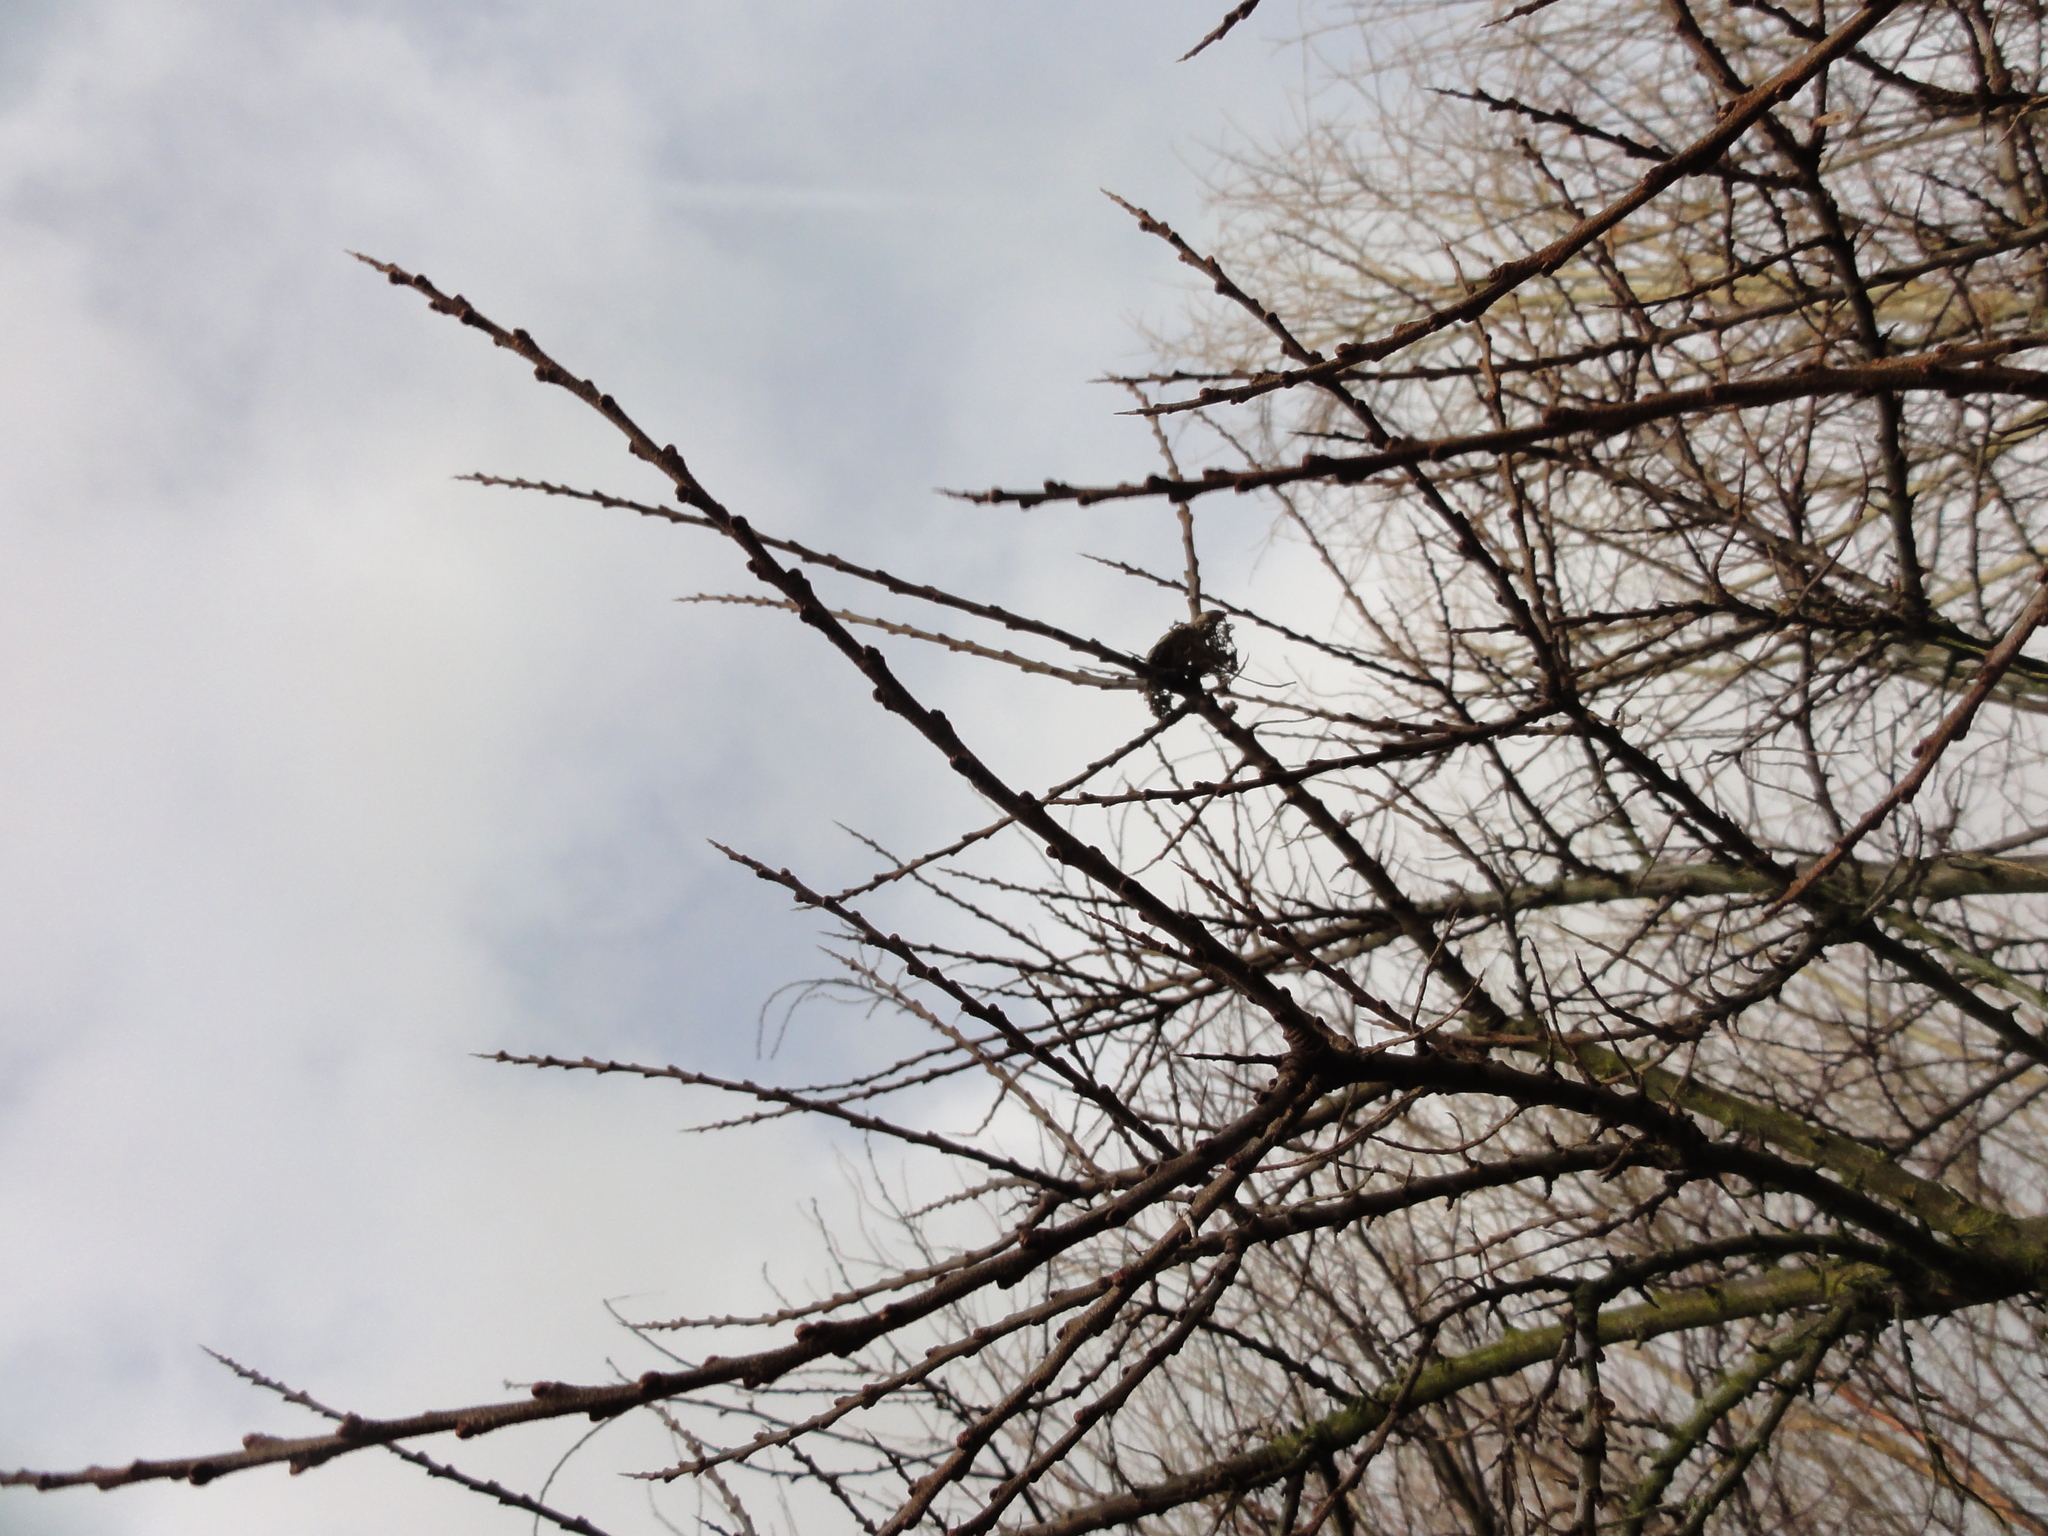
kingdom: Plantae
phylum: Tracheophyta
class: Magnoliopsida
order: Rosales
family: Elaeagnaceae
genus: Hippophae
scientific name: Hippophae rhamnoides
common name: Sea-buckthorn
